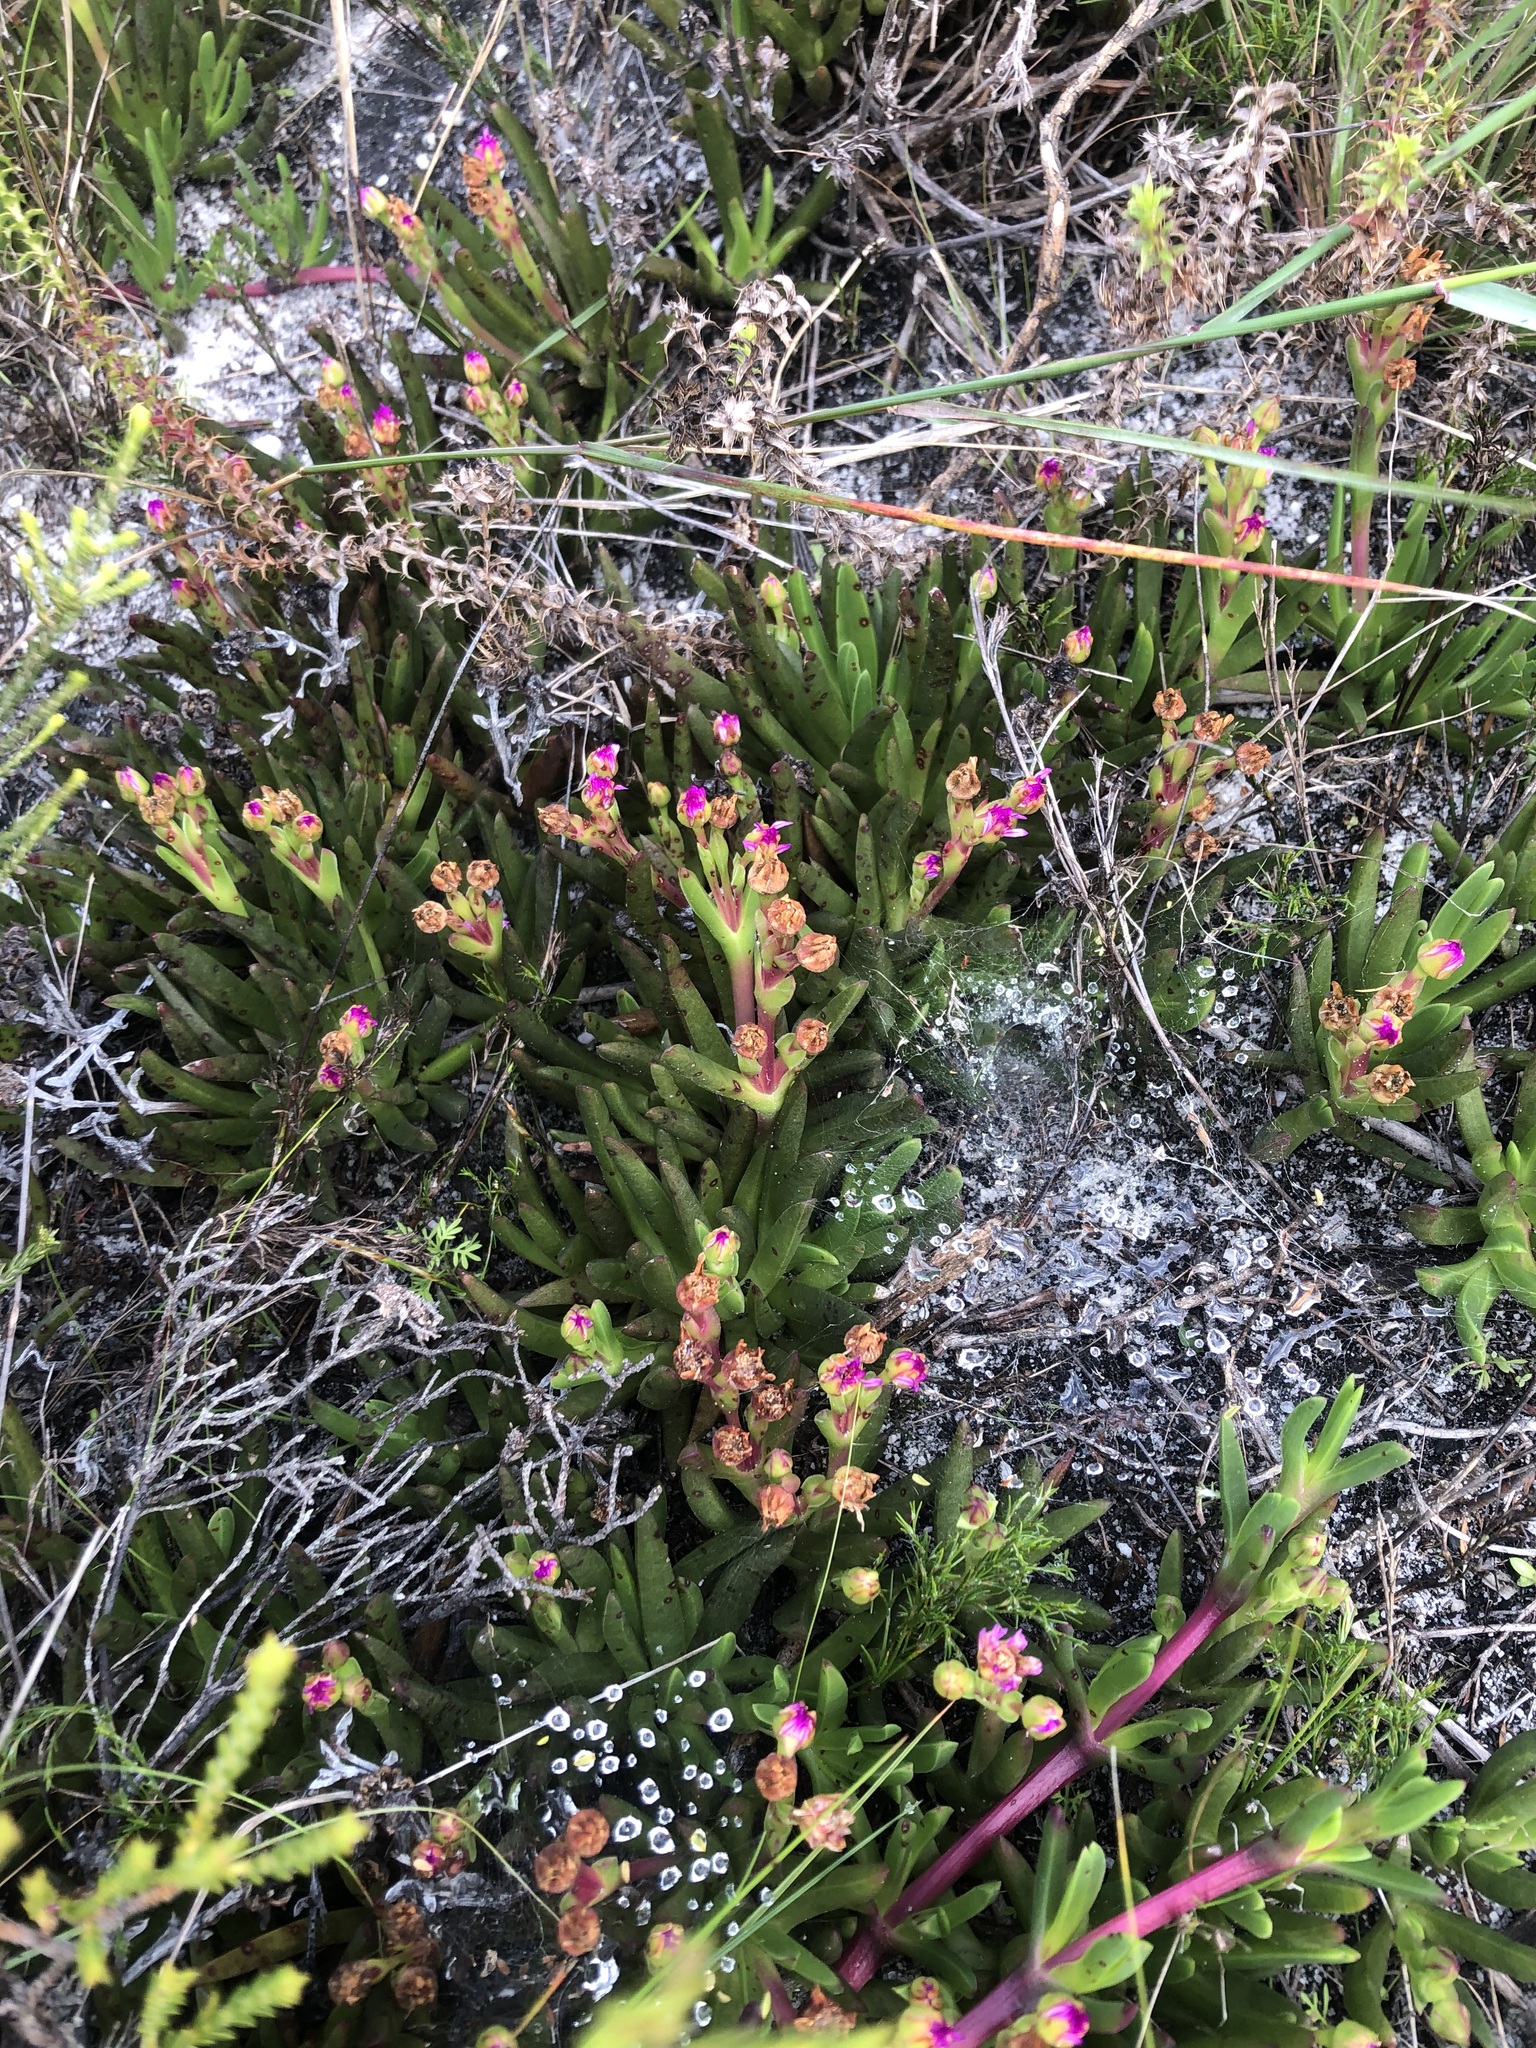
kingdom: Plantae
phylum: Tracheophyta
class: Magnoliopsida
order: Caryophyllales
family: Aizoaceae
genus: Ruschia
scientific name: Ruschia sarmentosa
